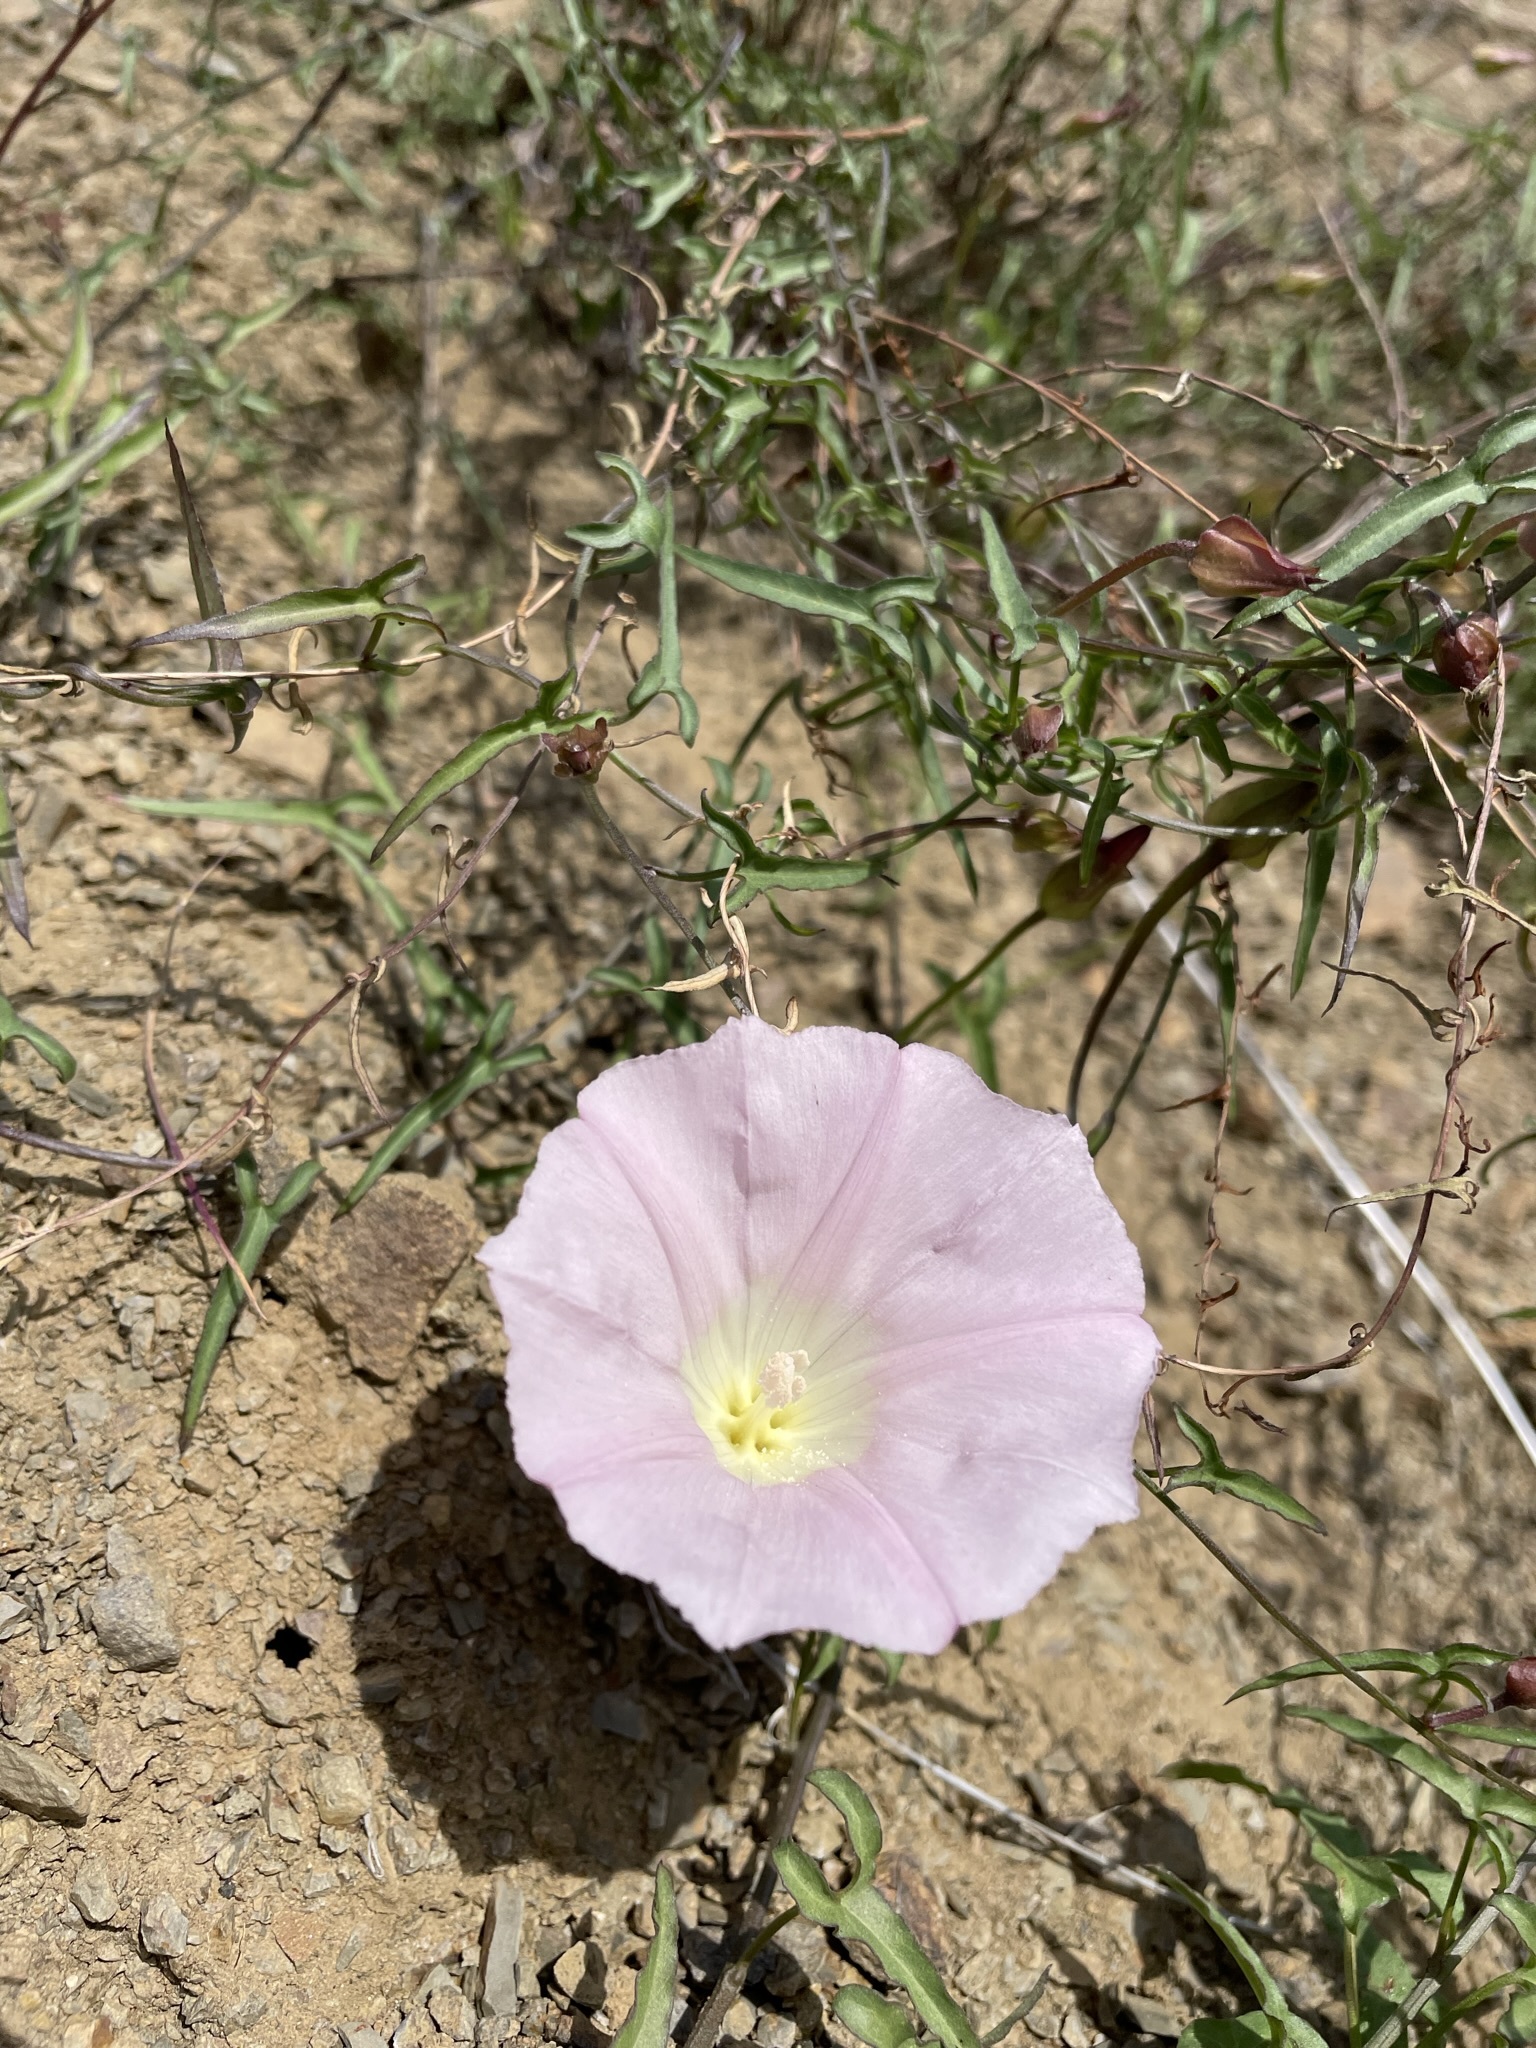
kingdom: Plantae
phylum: Tracheophyta
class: Magnoliopsida
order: Solanales
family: Convolvulaceae
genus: Calystegia
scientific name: Calystegia macrostegia
